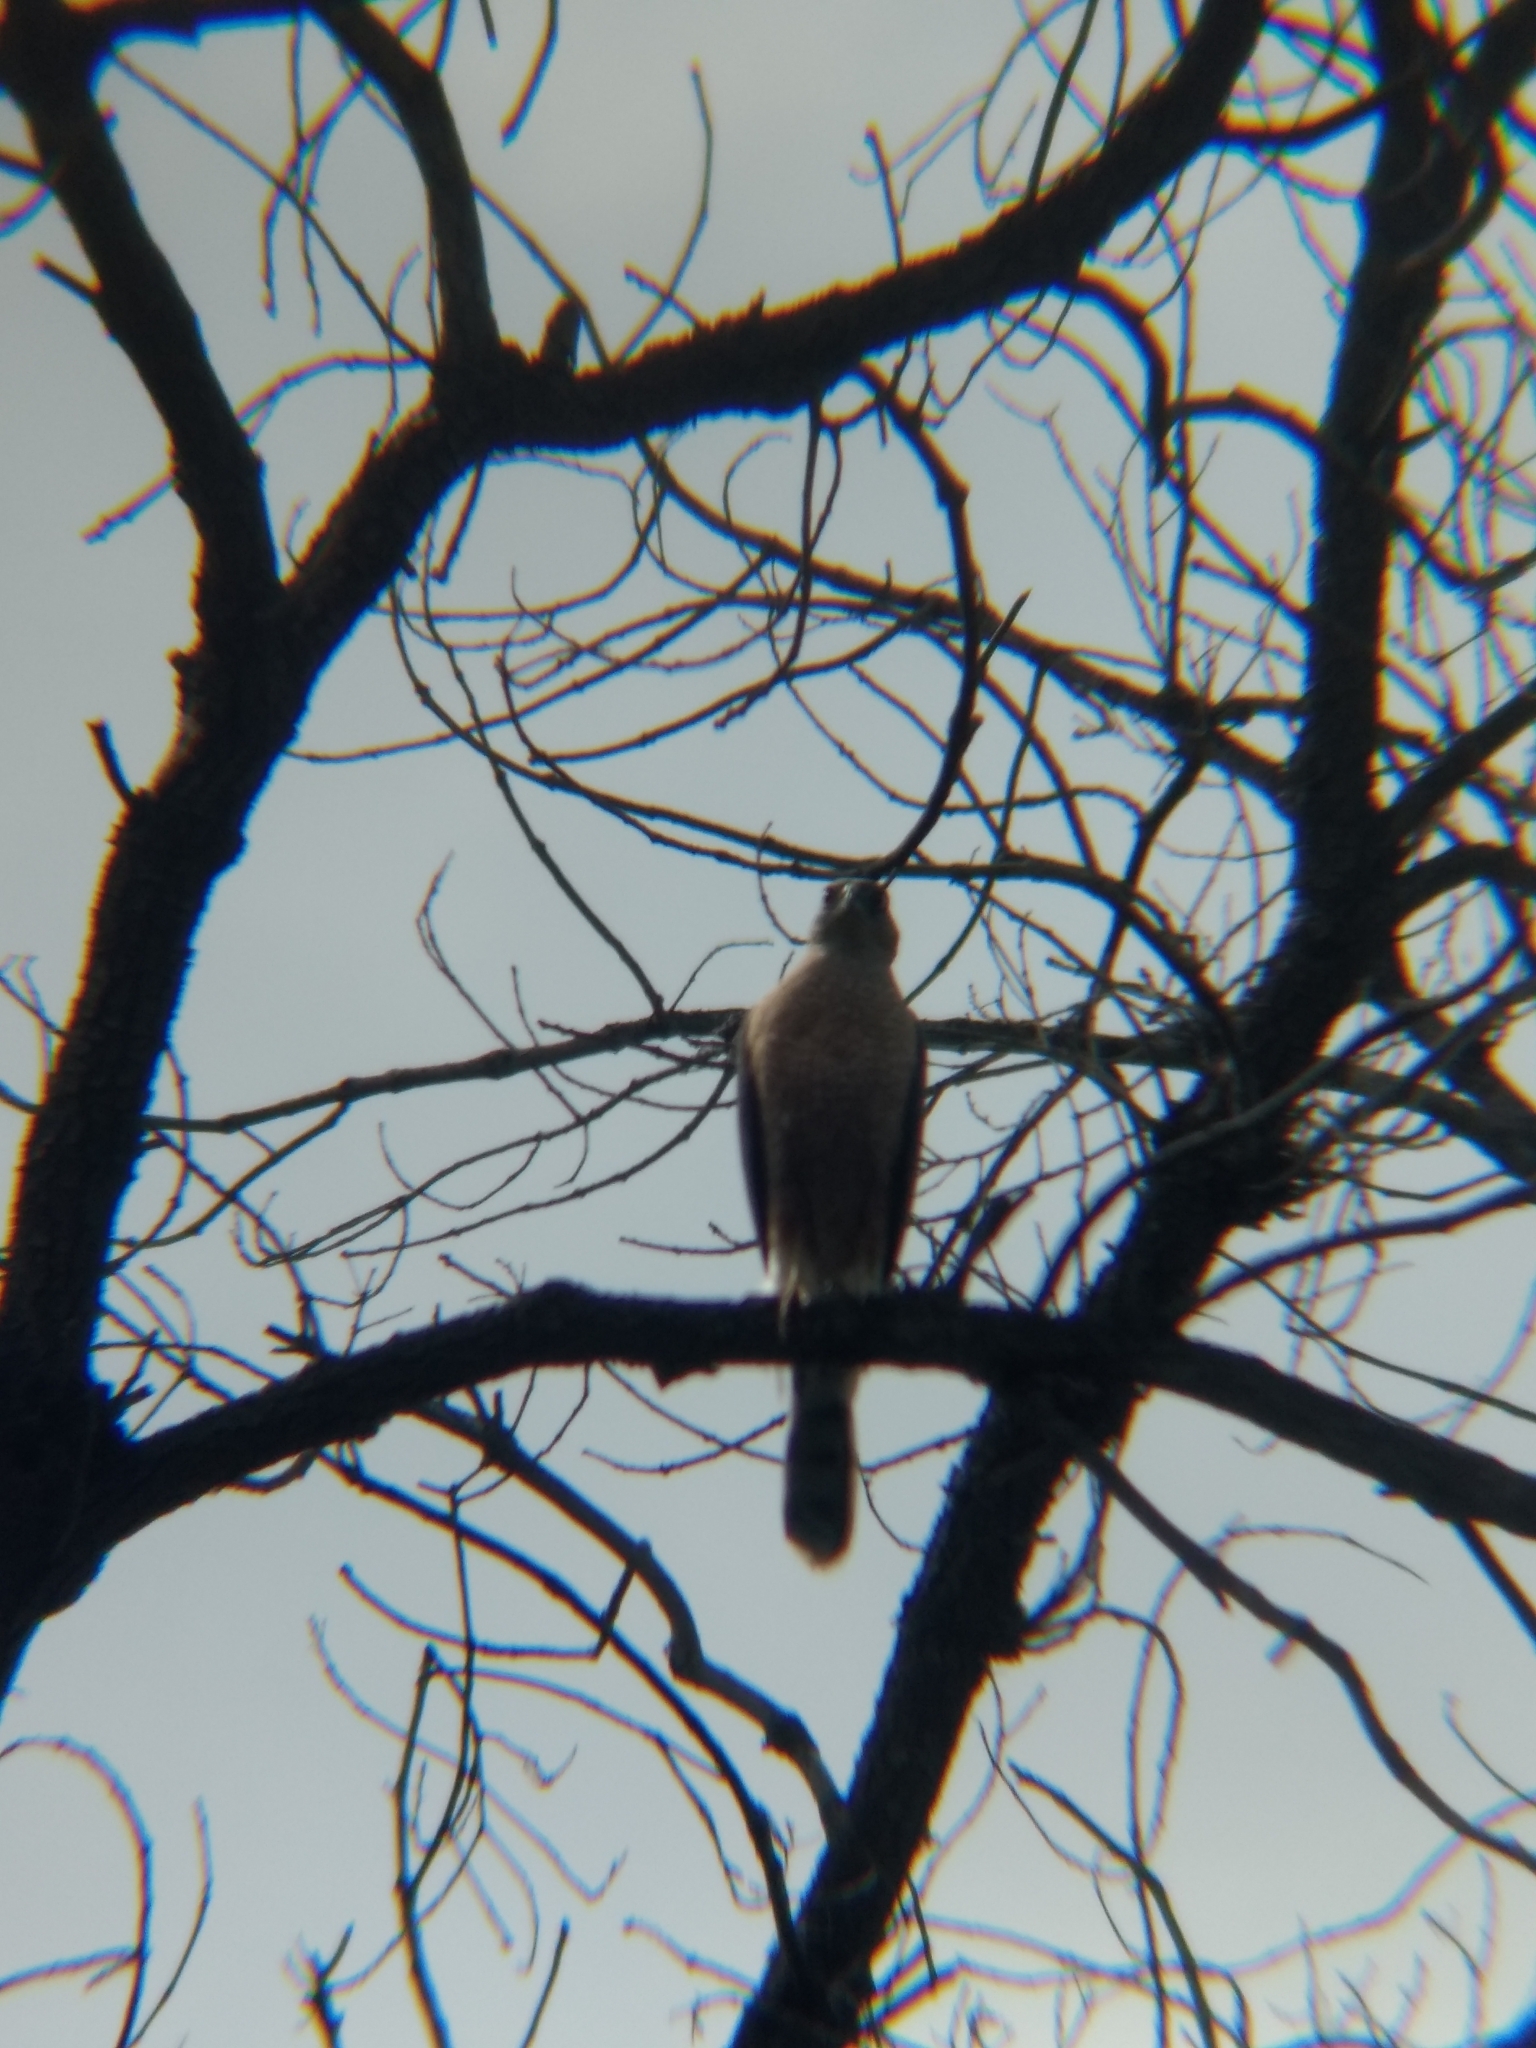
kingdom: Animalia
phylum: Chordata
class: Aves
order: Accipitriformes
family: Accipitridae
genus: Accipiter
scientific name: Accipiter cooperii
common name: Cooper's hawk
